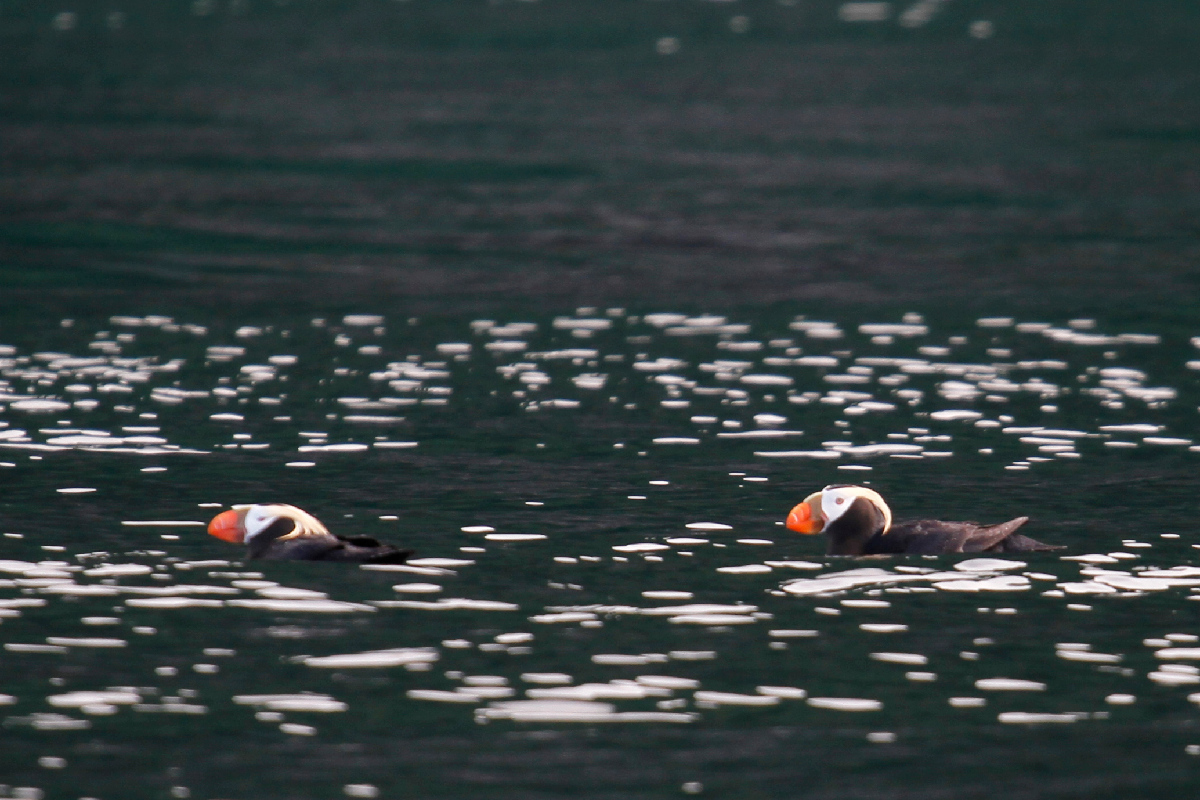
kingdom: Animalia
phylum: Chordata
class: Aves
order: Charadriiformes
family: Alcidae
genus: Fratercula
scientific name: Fratercula cirrhata
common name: Tufted puffin
